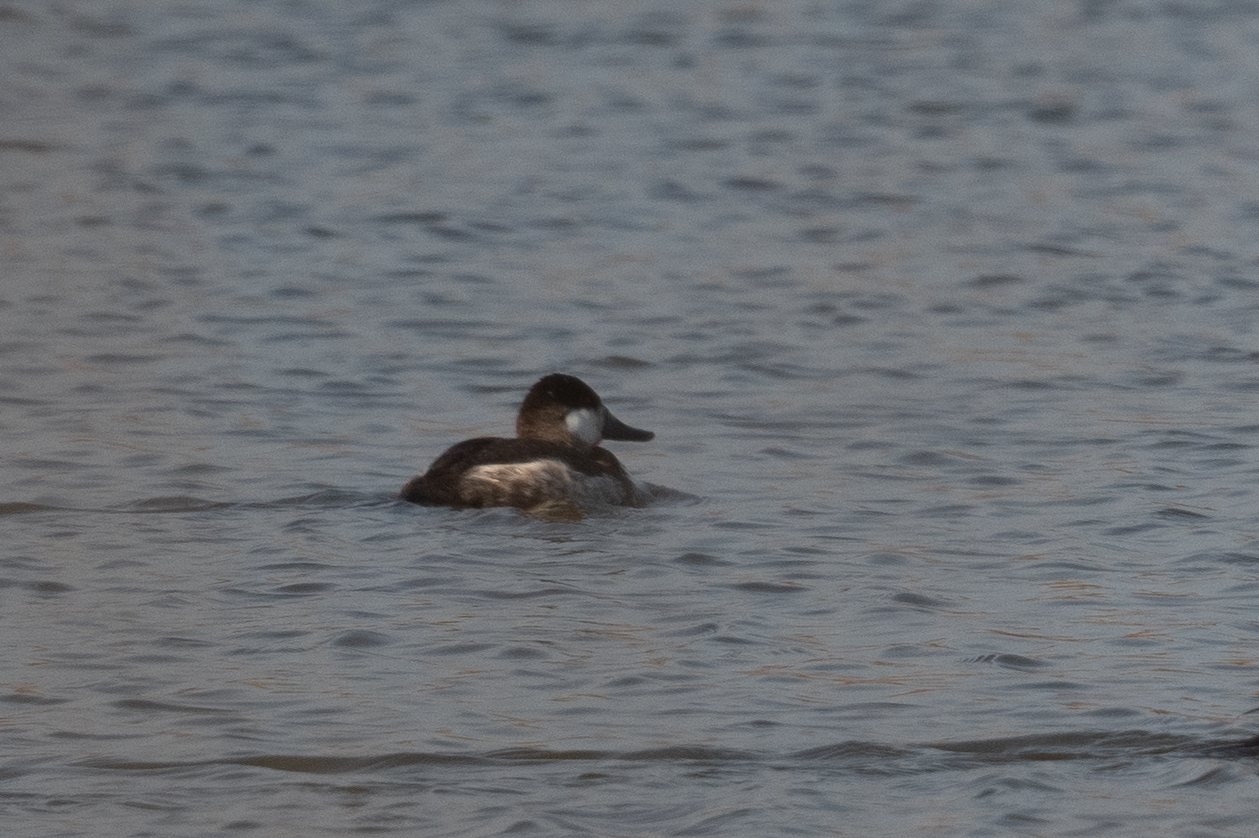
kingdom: Animalia
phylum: Chordata
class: Aves
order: Anseriformes
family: Anatidae
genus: Oxyura
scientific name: Oxyura jamaicensis
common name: Ruddy duck
